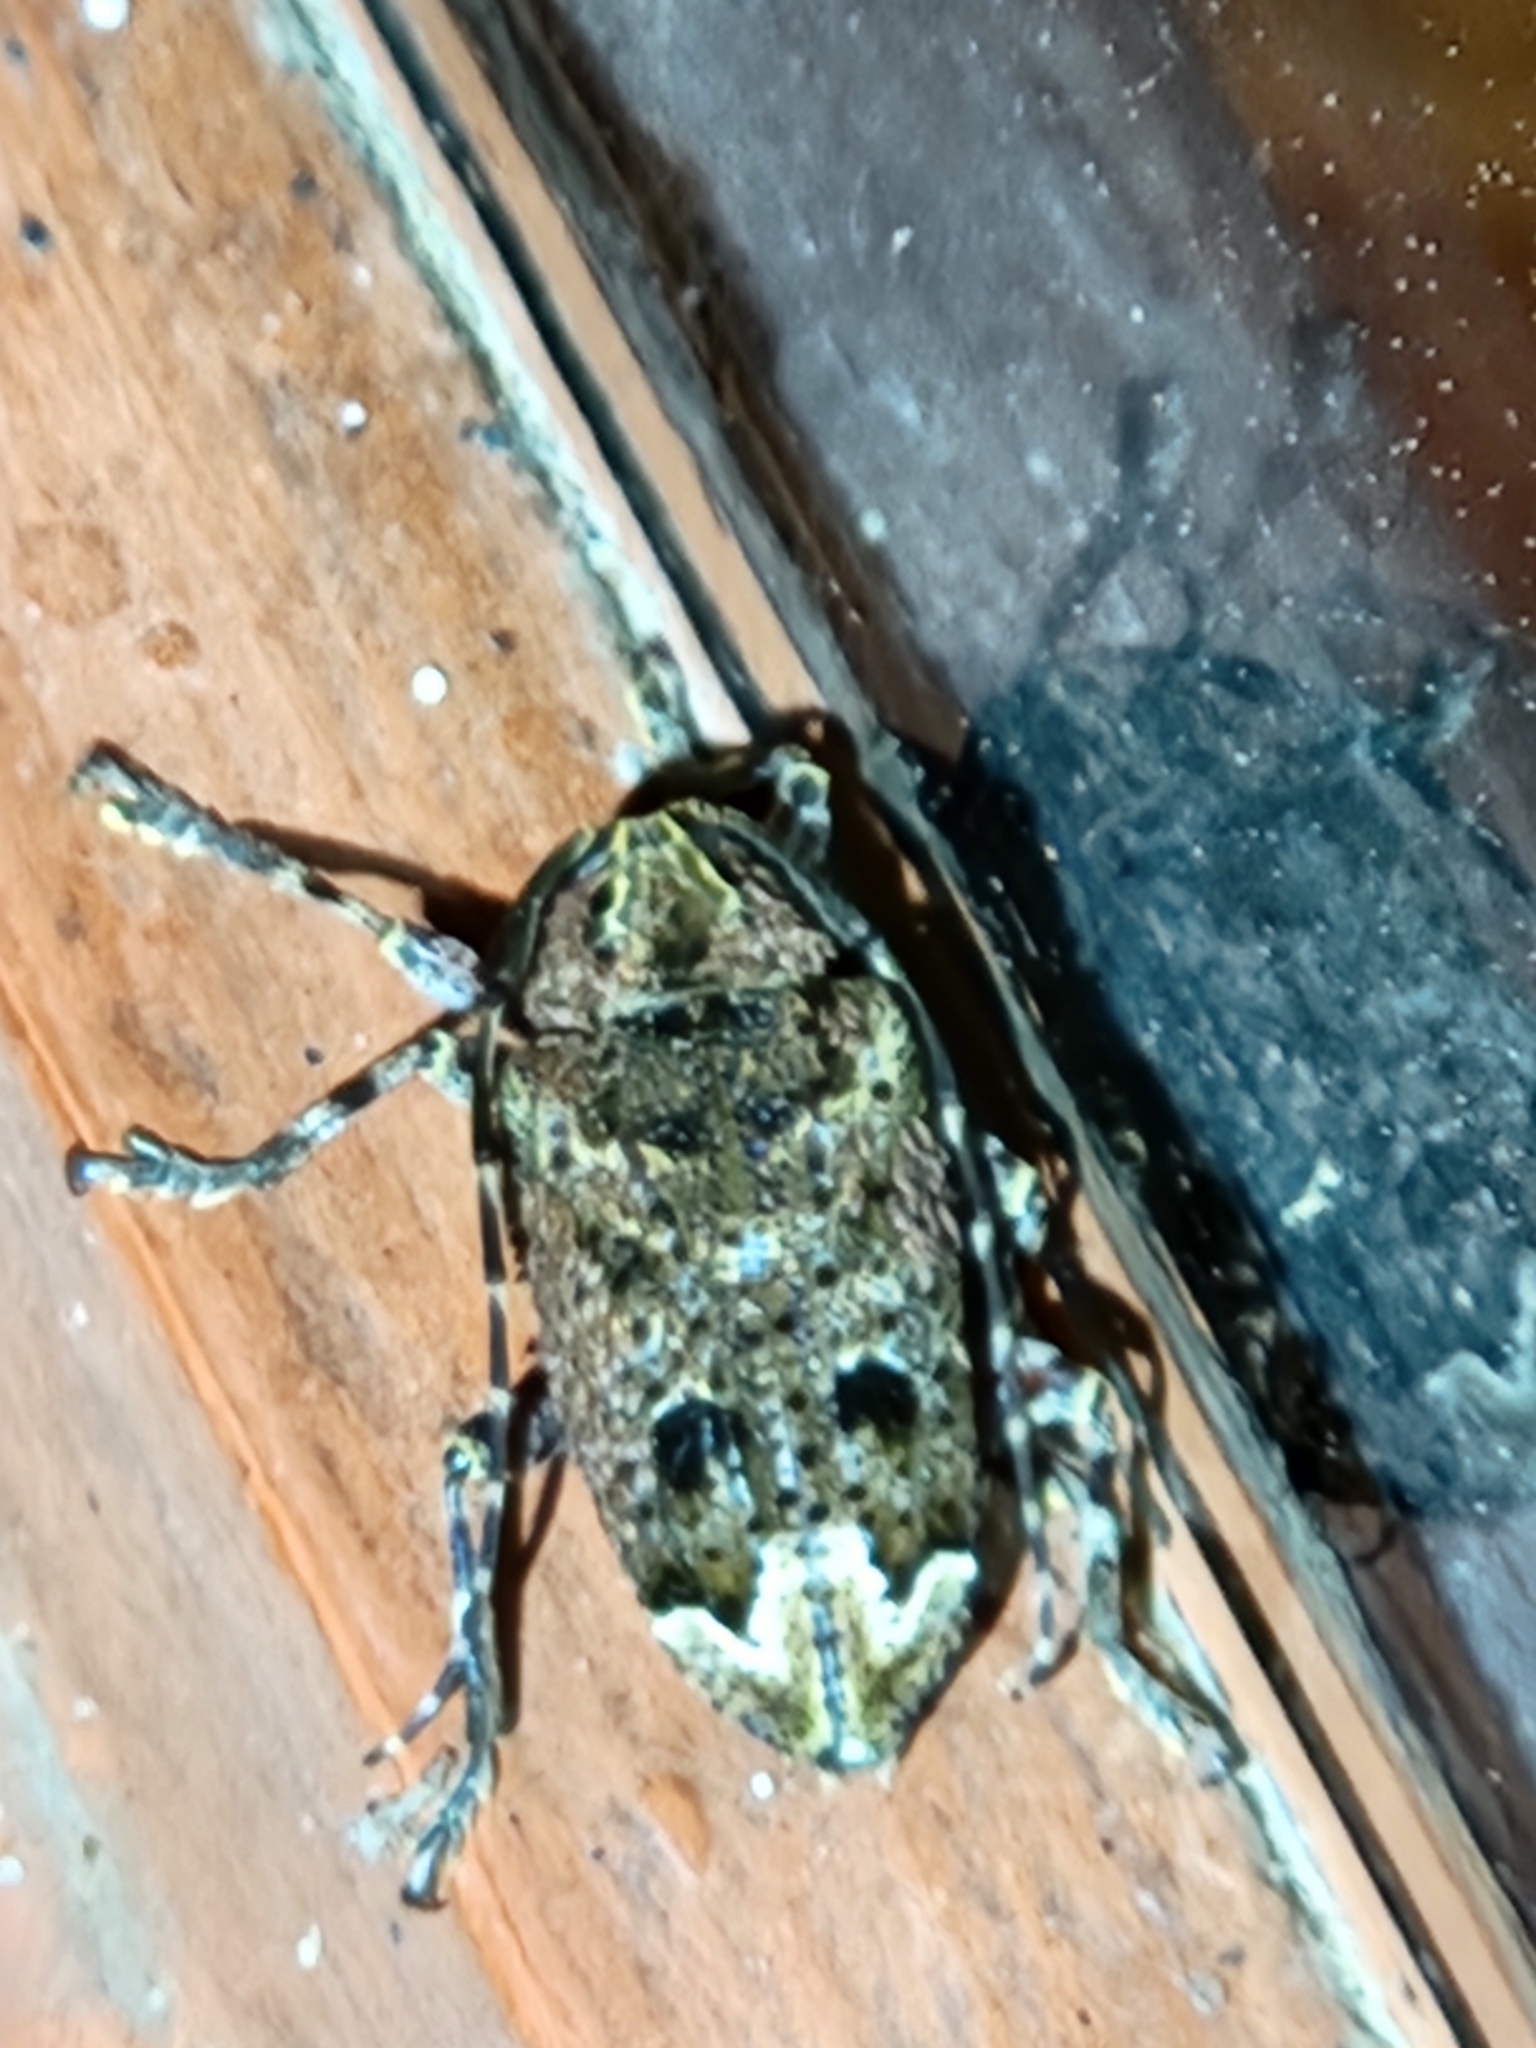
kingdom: Animalia
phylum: Arthropoda
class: Insecta
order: Coleoptera
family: Cerambycidae
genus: Trypanidius
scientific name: Trypanidius mexicanus
